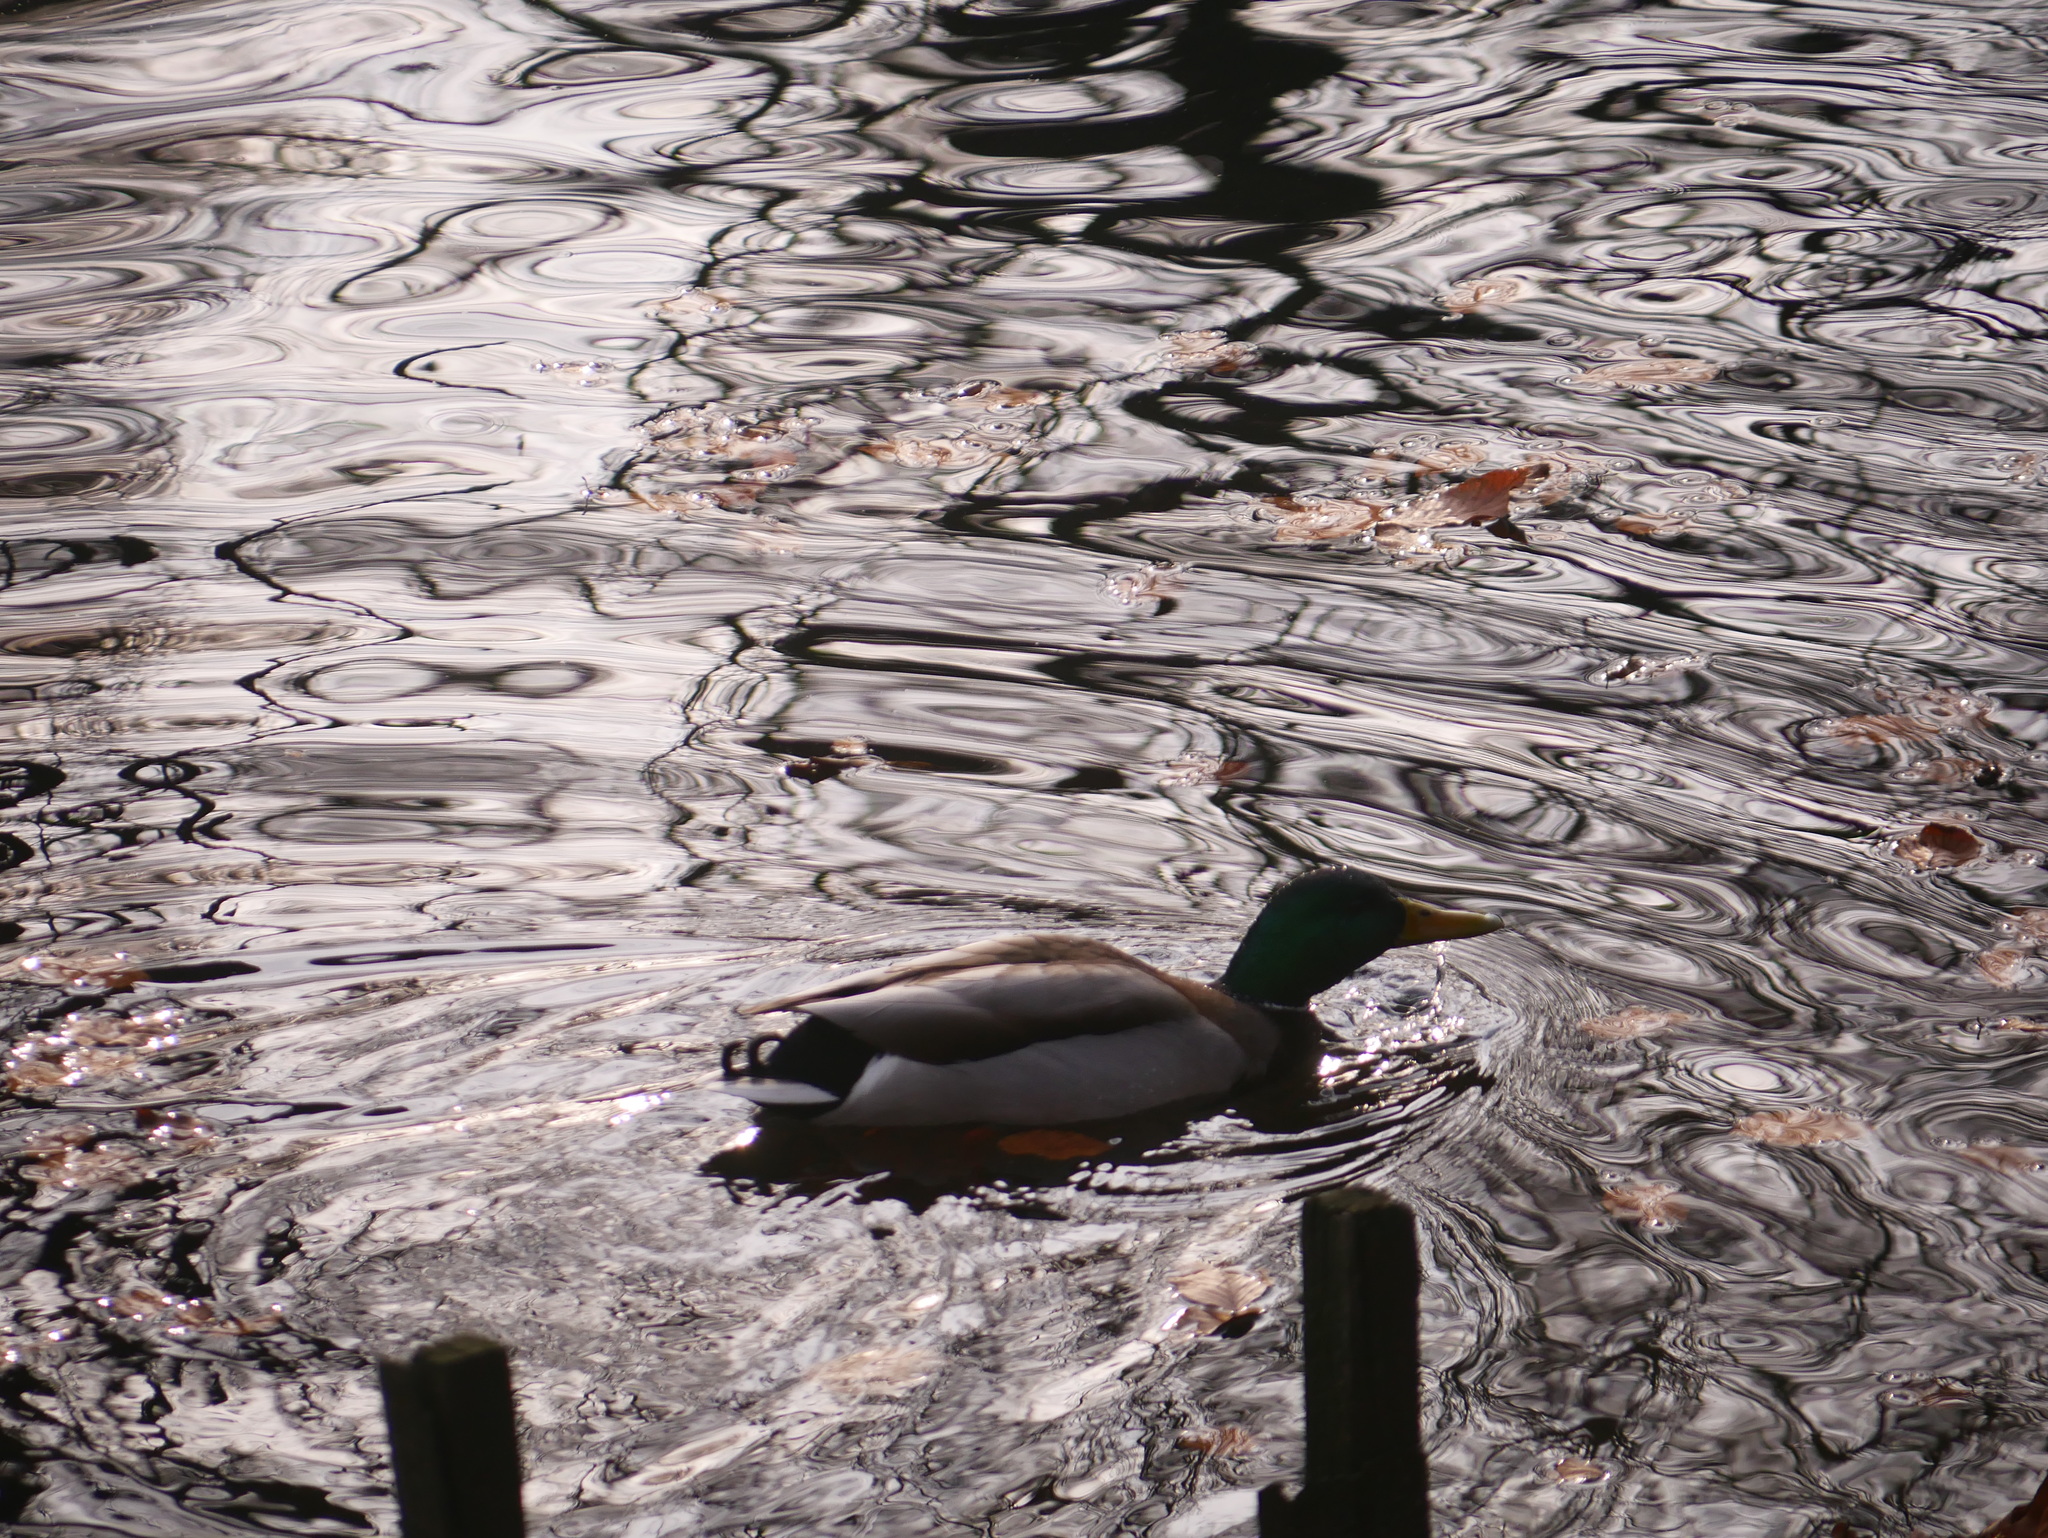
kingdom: Animalia
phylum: Chordata
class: Aves
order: Anseriformes
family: Anatidae
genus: Anas
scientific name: Anas platyrhynchos
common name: Mallard
